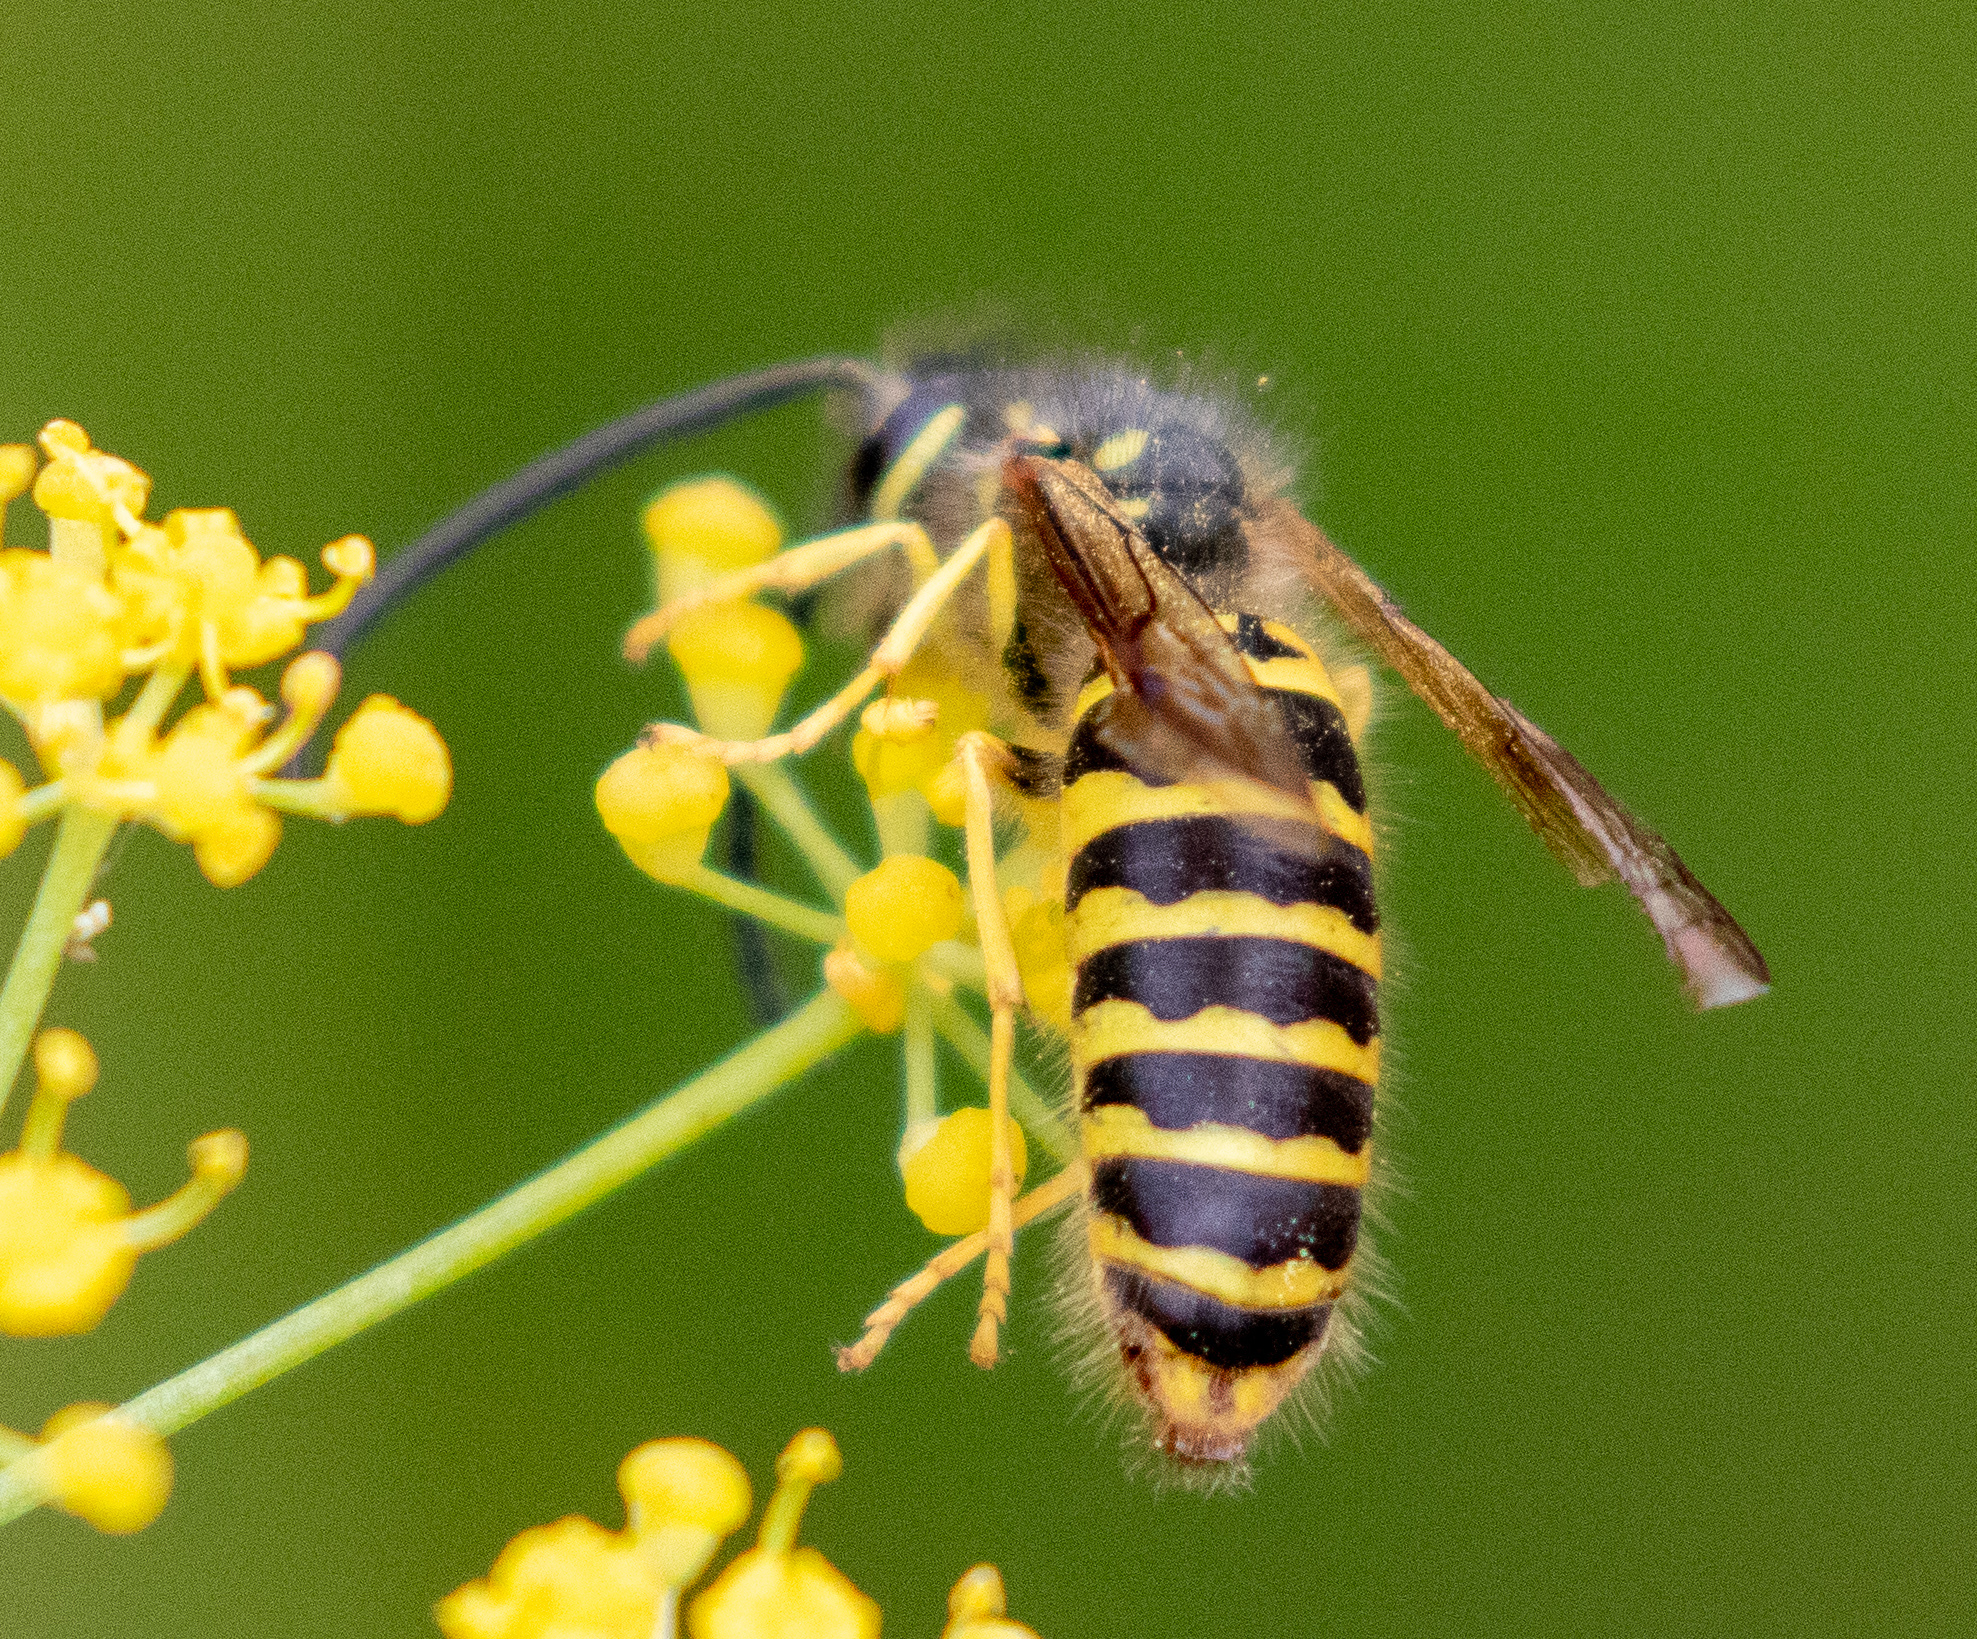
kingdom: Animalia
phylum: Arthropoda
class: Insecta
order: Hymenoptera
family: Vespidae
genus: Vespula
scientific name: Vespula maculifrons
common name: Eastern yellowjacket
